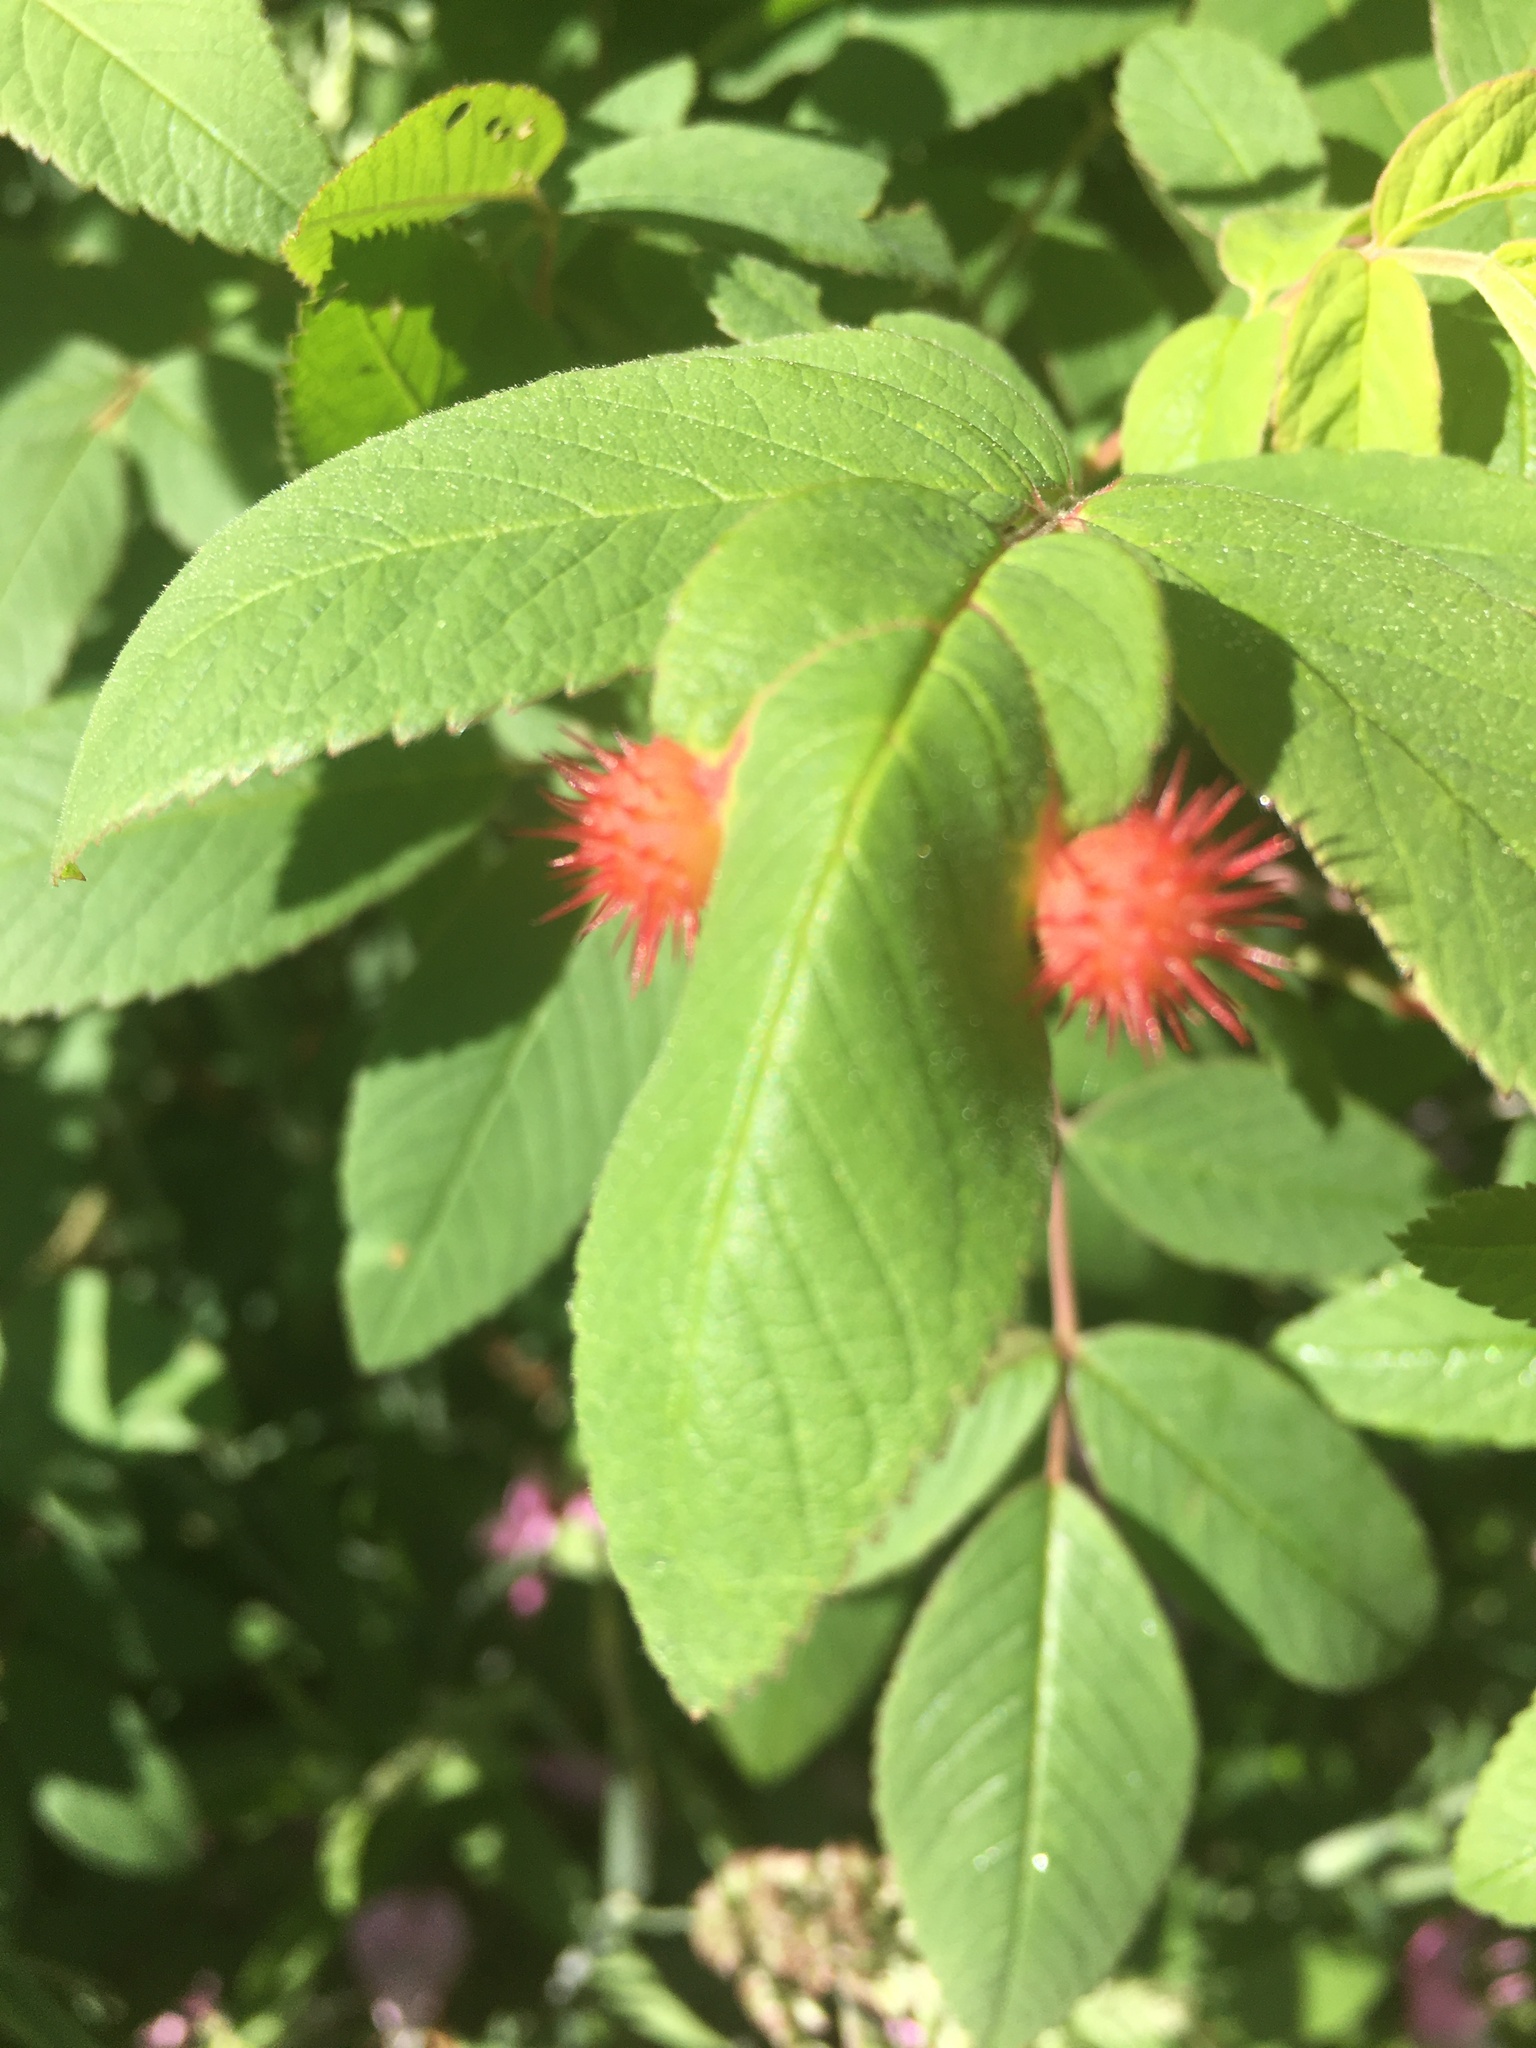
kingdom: Animalia
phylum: Arthropoda
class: Insecta
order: Hymenoptera
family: Cynipidae
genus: Diplolepis
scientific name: Diplolepis polita
